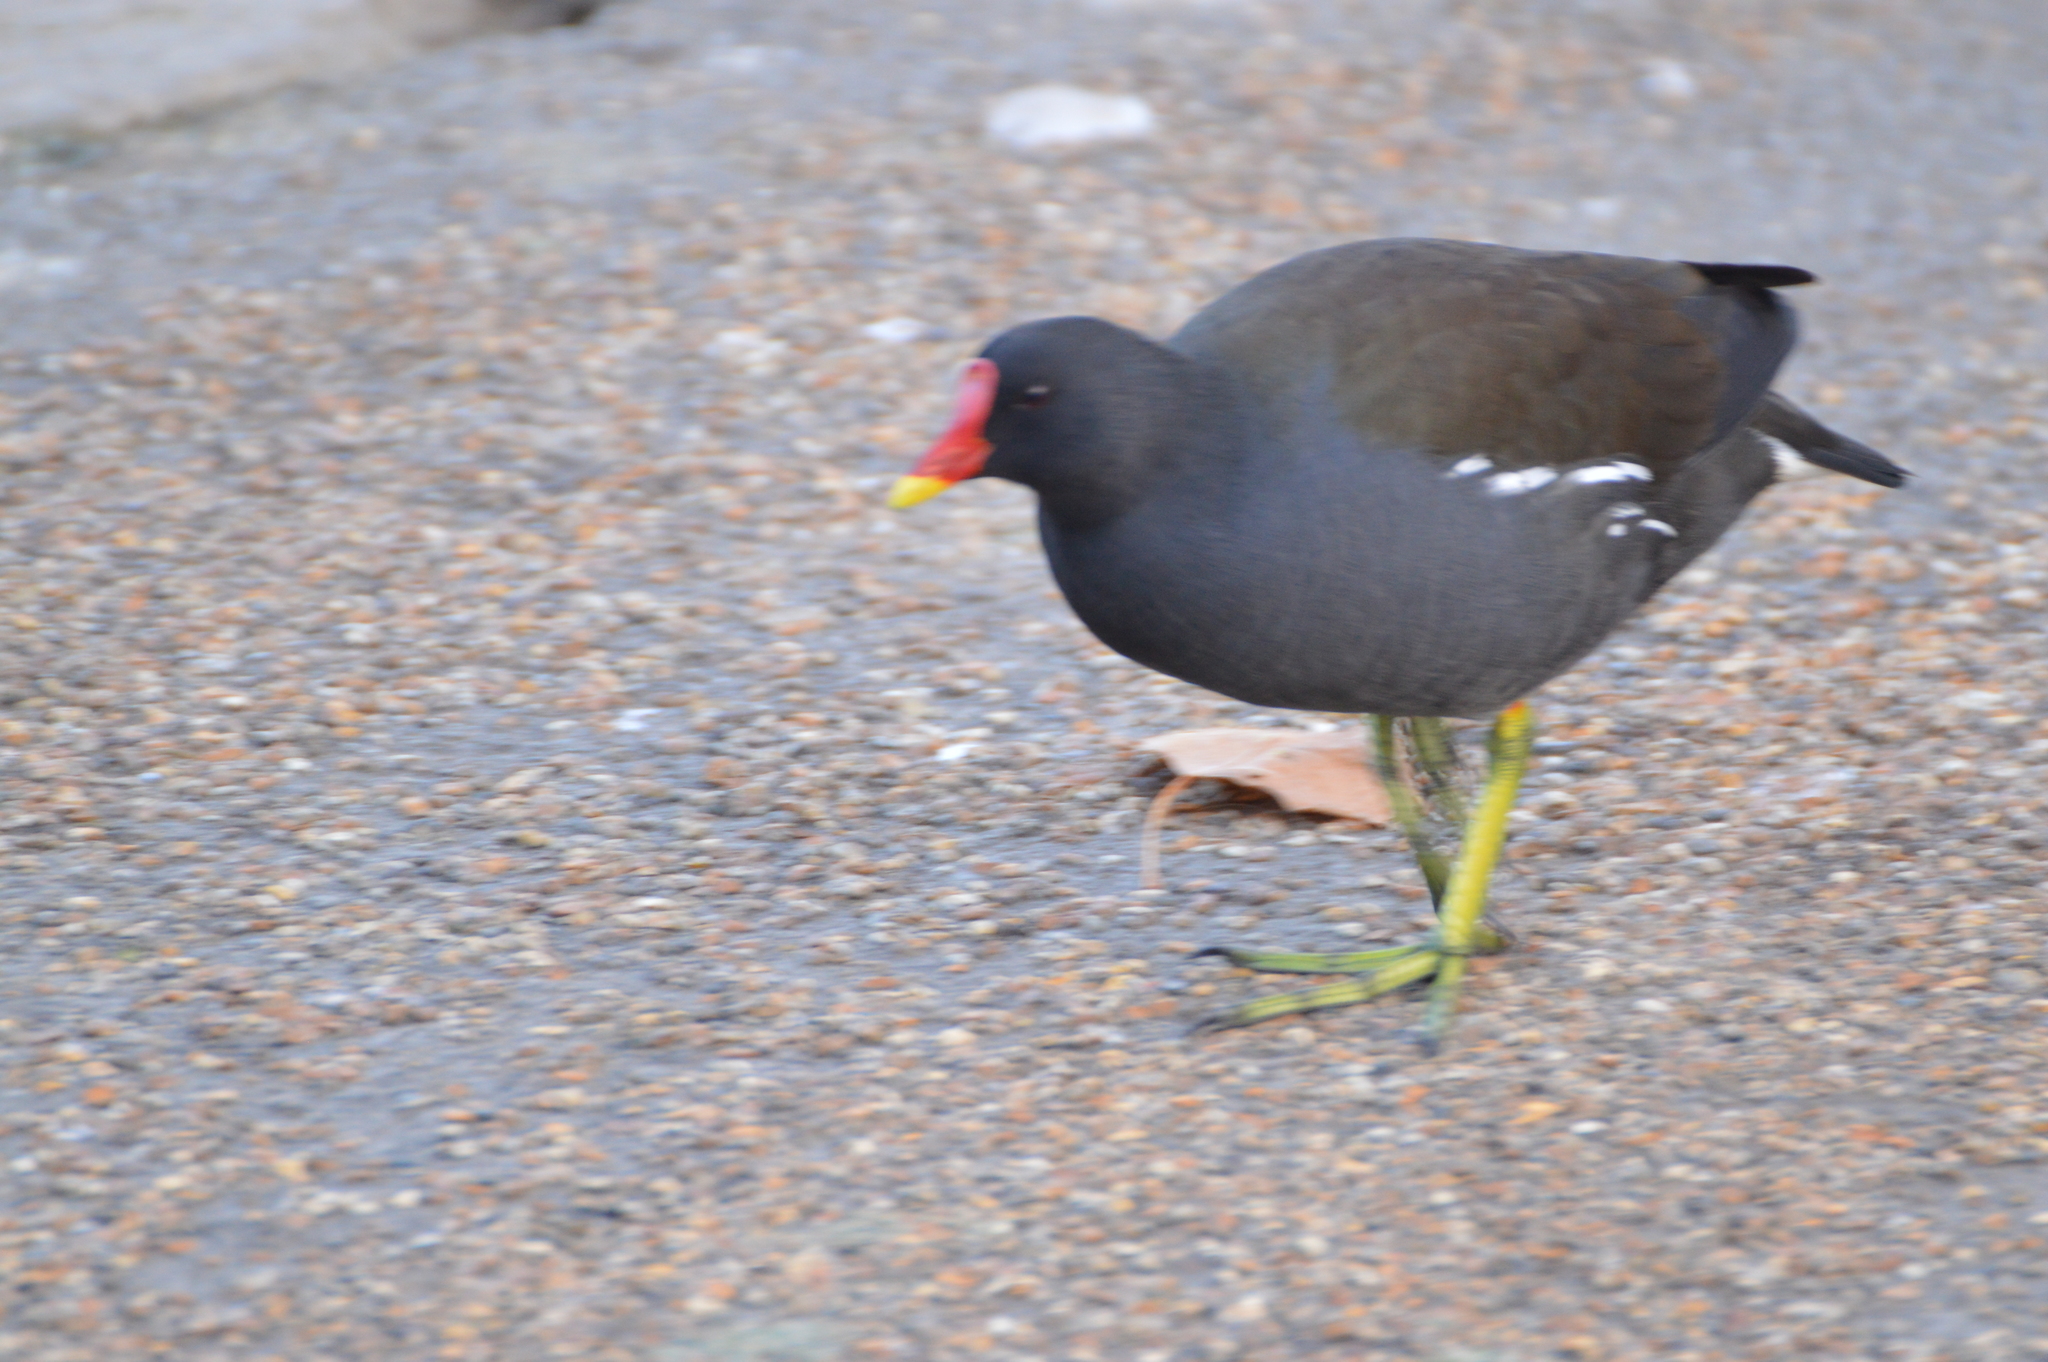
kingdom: Animalia
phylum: Chordata
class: Aves
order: Gruiformes
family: Rallidae
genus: Gallinula
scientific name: Gallinula chloropus
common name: Common moorhen
